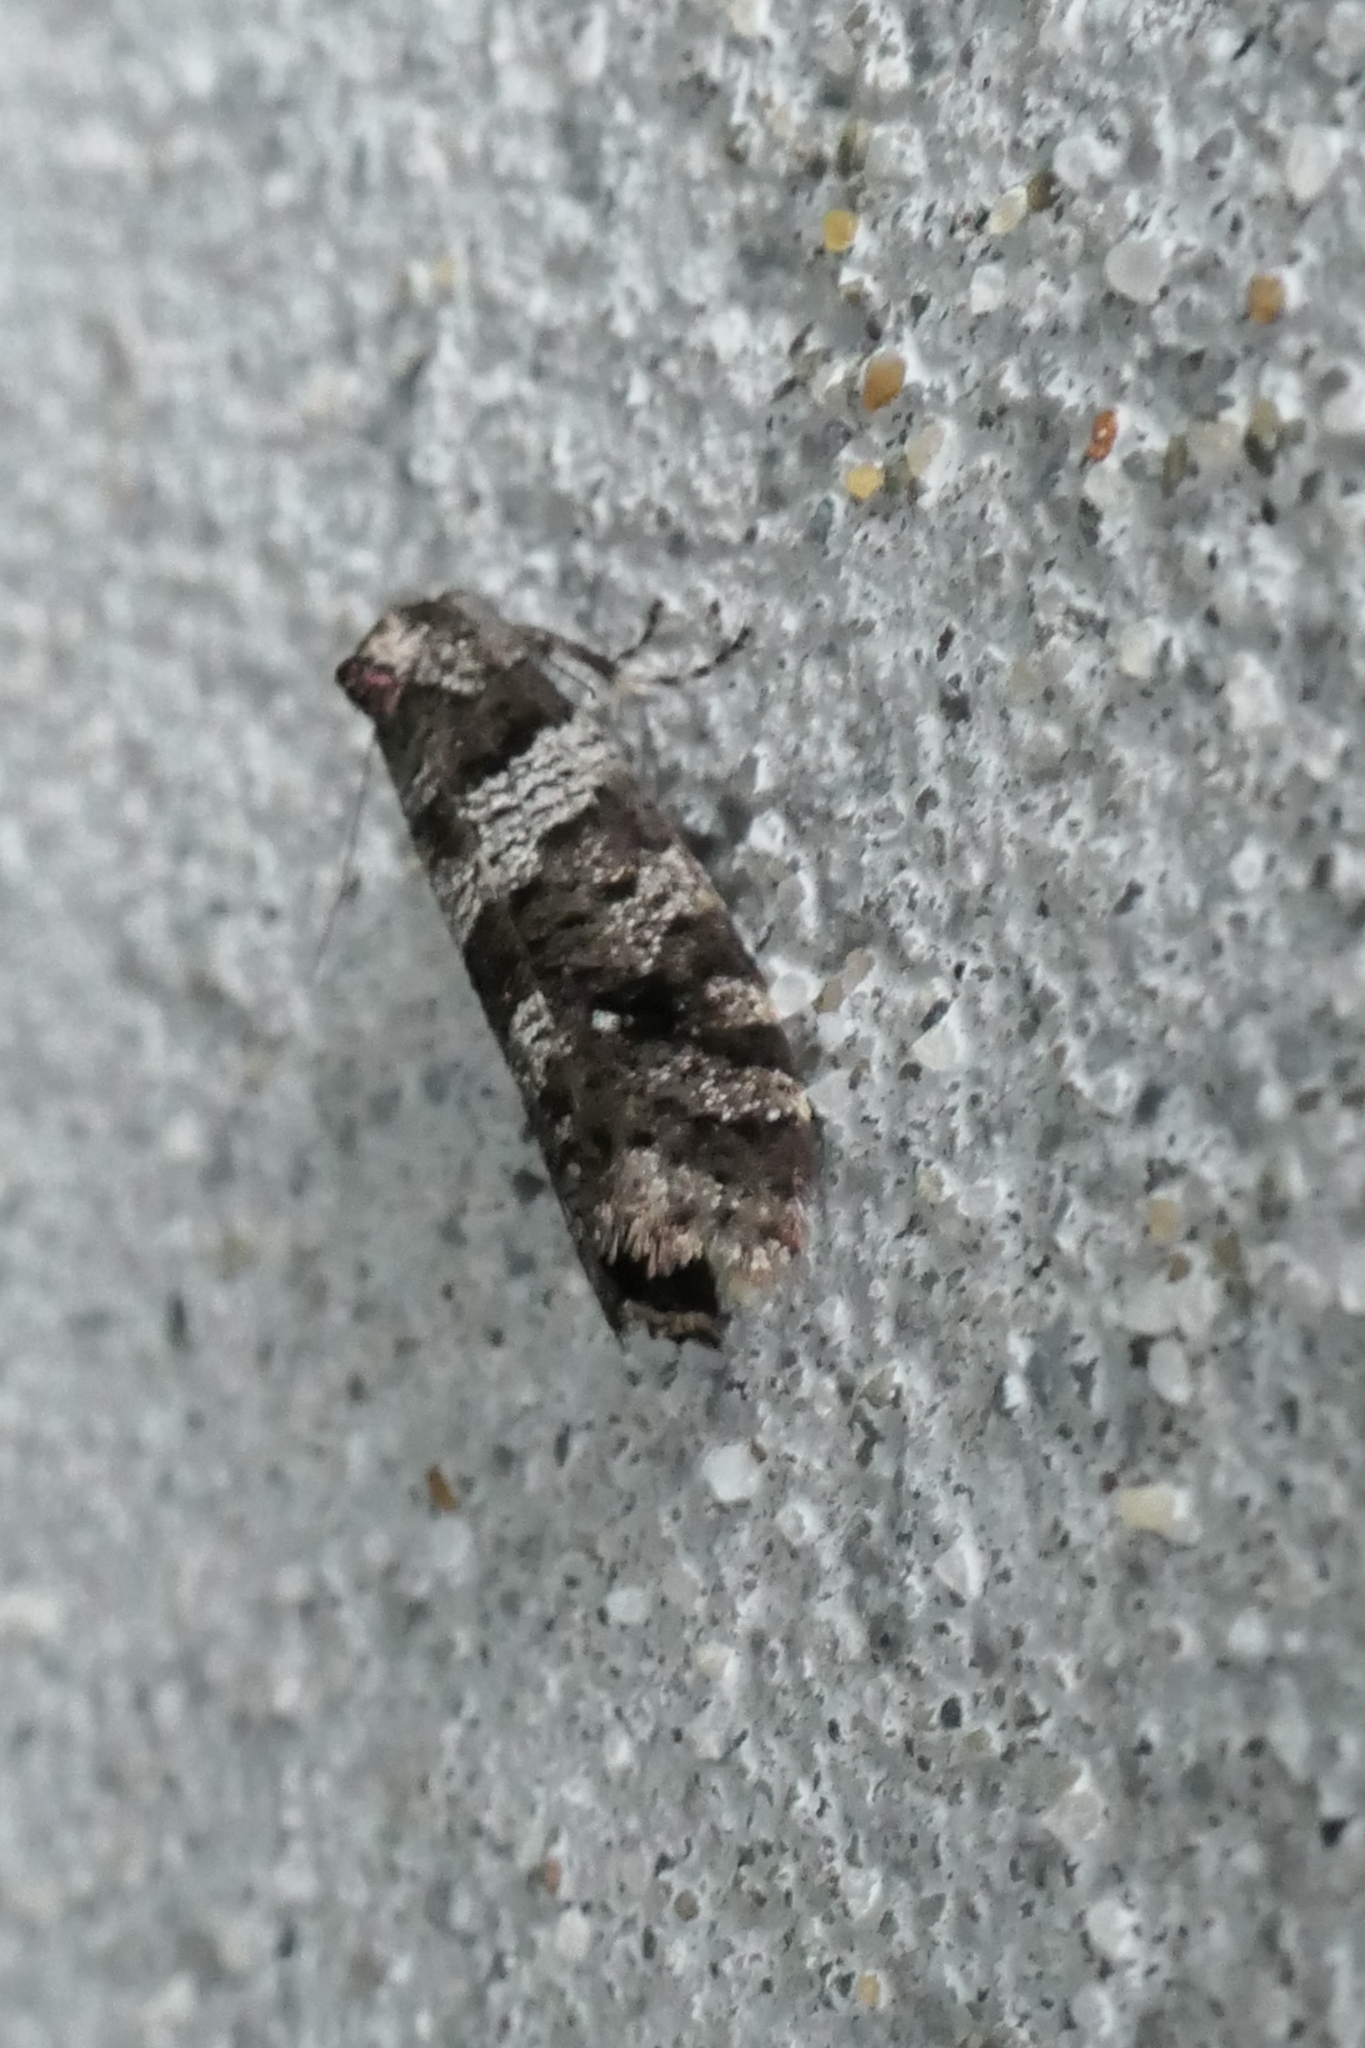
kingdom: Animalia
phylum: Arthropoda
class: Insecta
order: Lepidoptera
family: Psychidae
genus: Lepidoscia
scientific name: Lepidoscia heliochares
